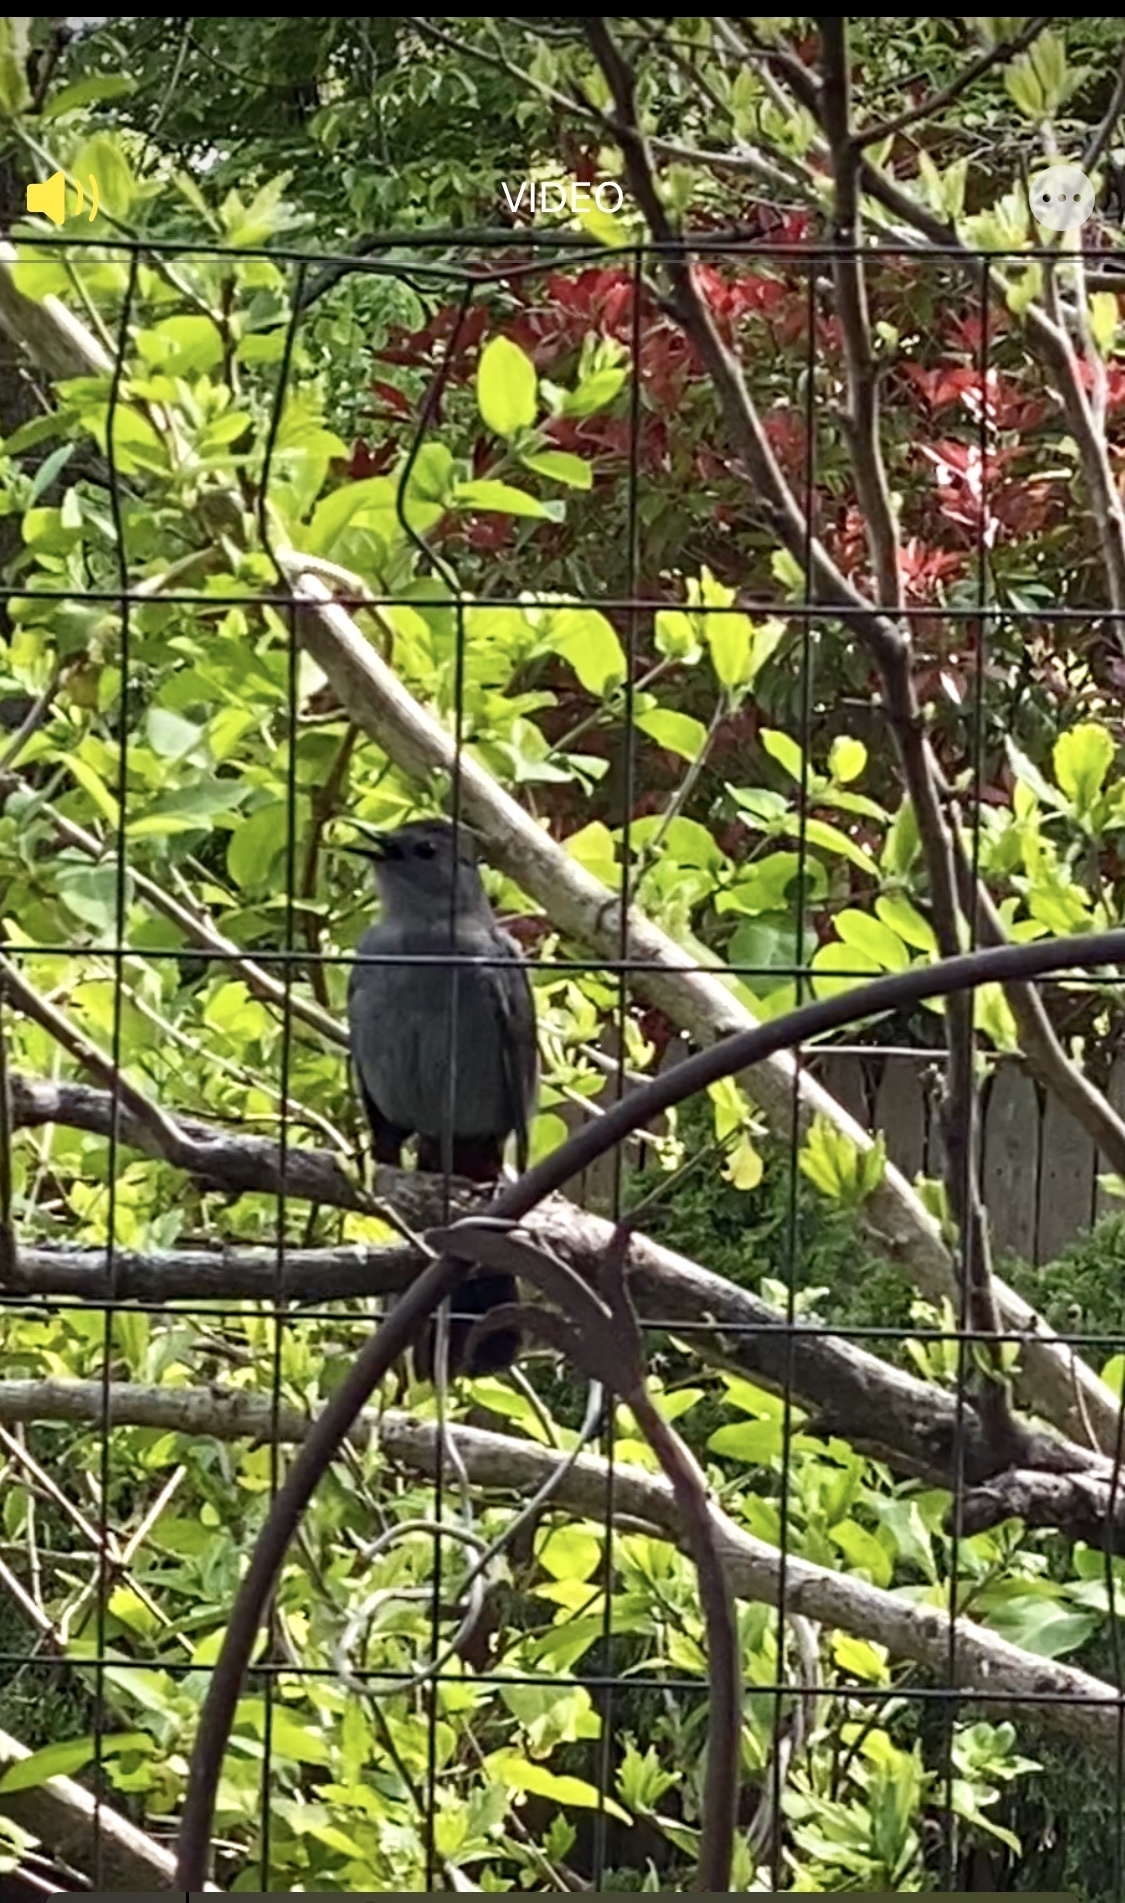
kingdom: Animalia
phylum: Chordata
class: Aves
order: Passeriformes
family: Mimidae
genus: Dumetella
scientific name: Dumetella carolinensis
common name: Gray catbird
